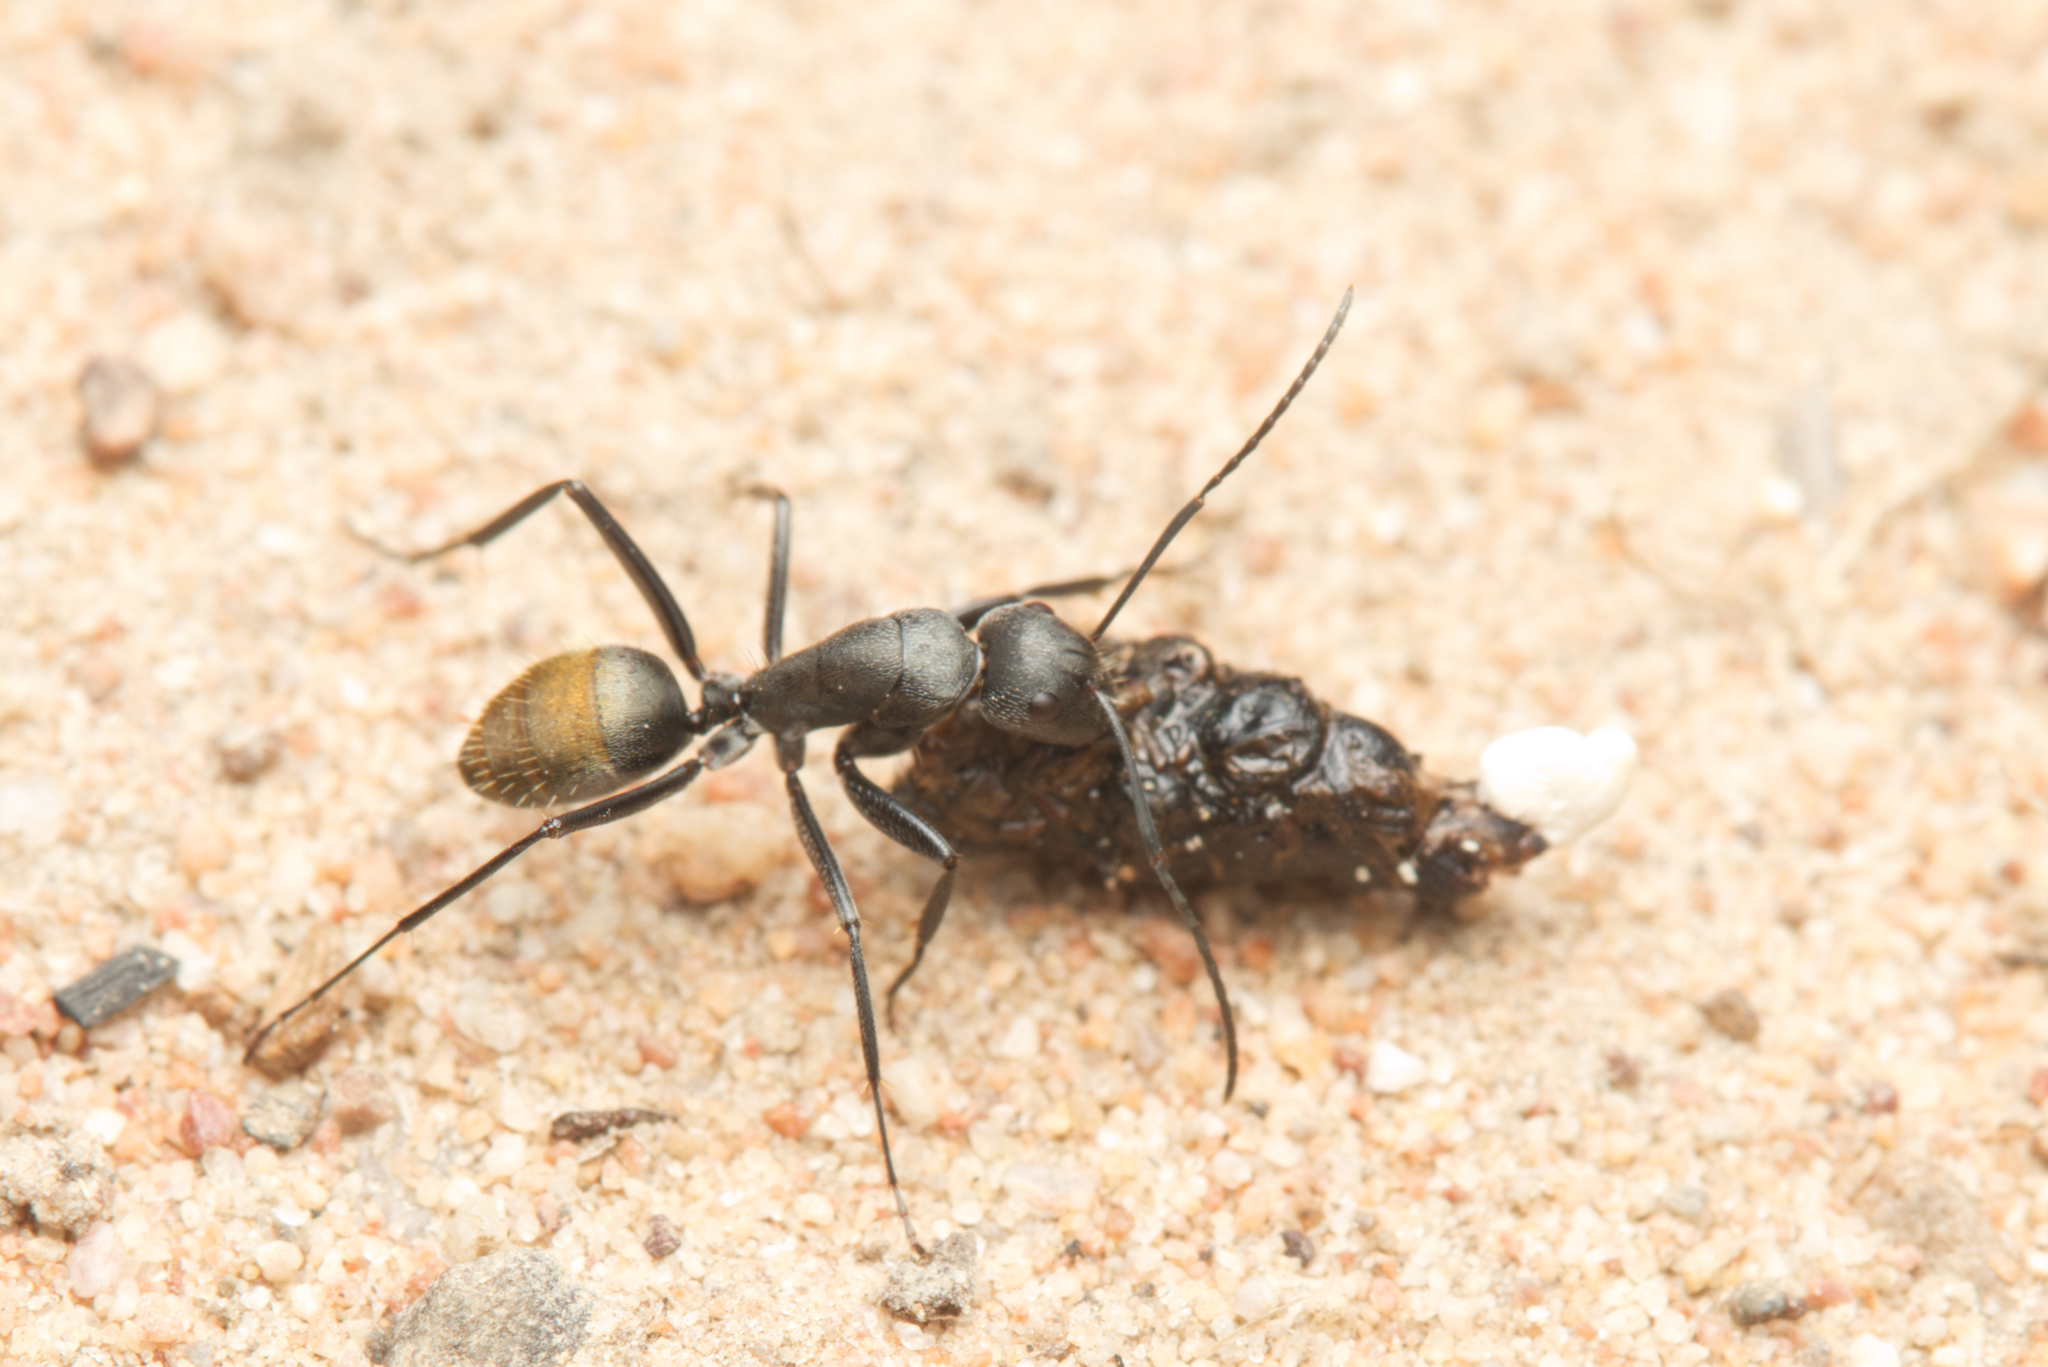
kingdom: Animalia
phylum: Arthropoda
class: Insecta
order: Hymenoptera
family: Formicidae
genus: Camponotus
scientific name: Camponotus aeneopilosus
